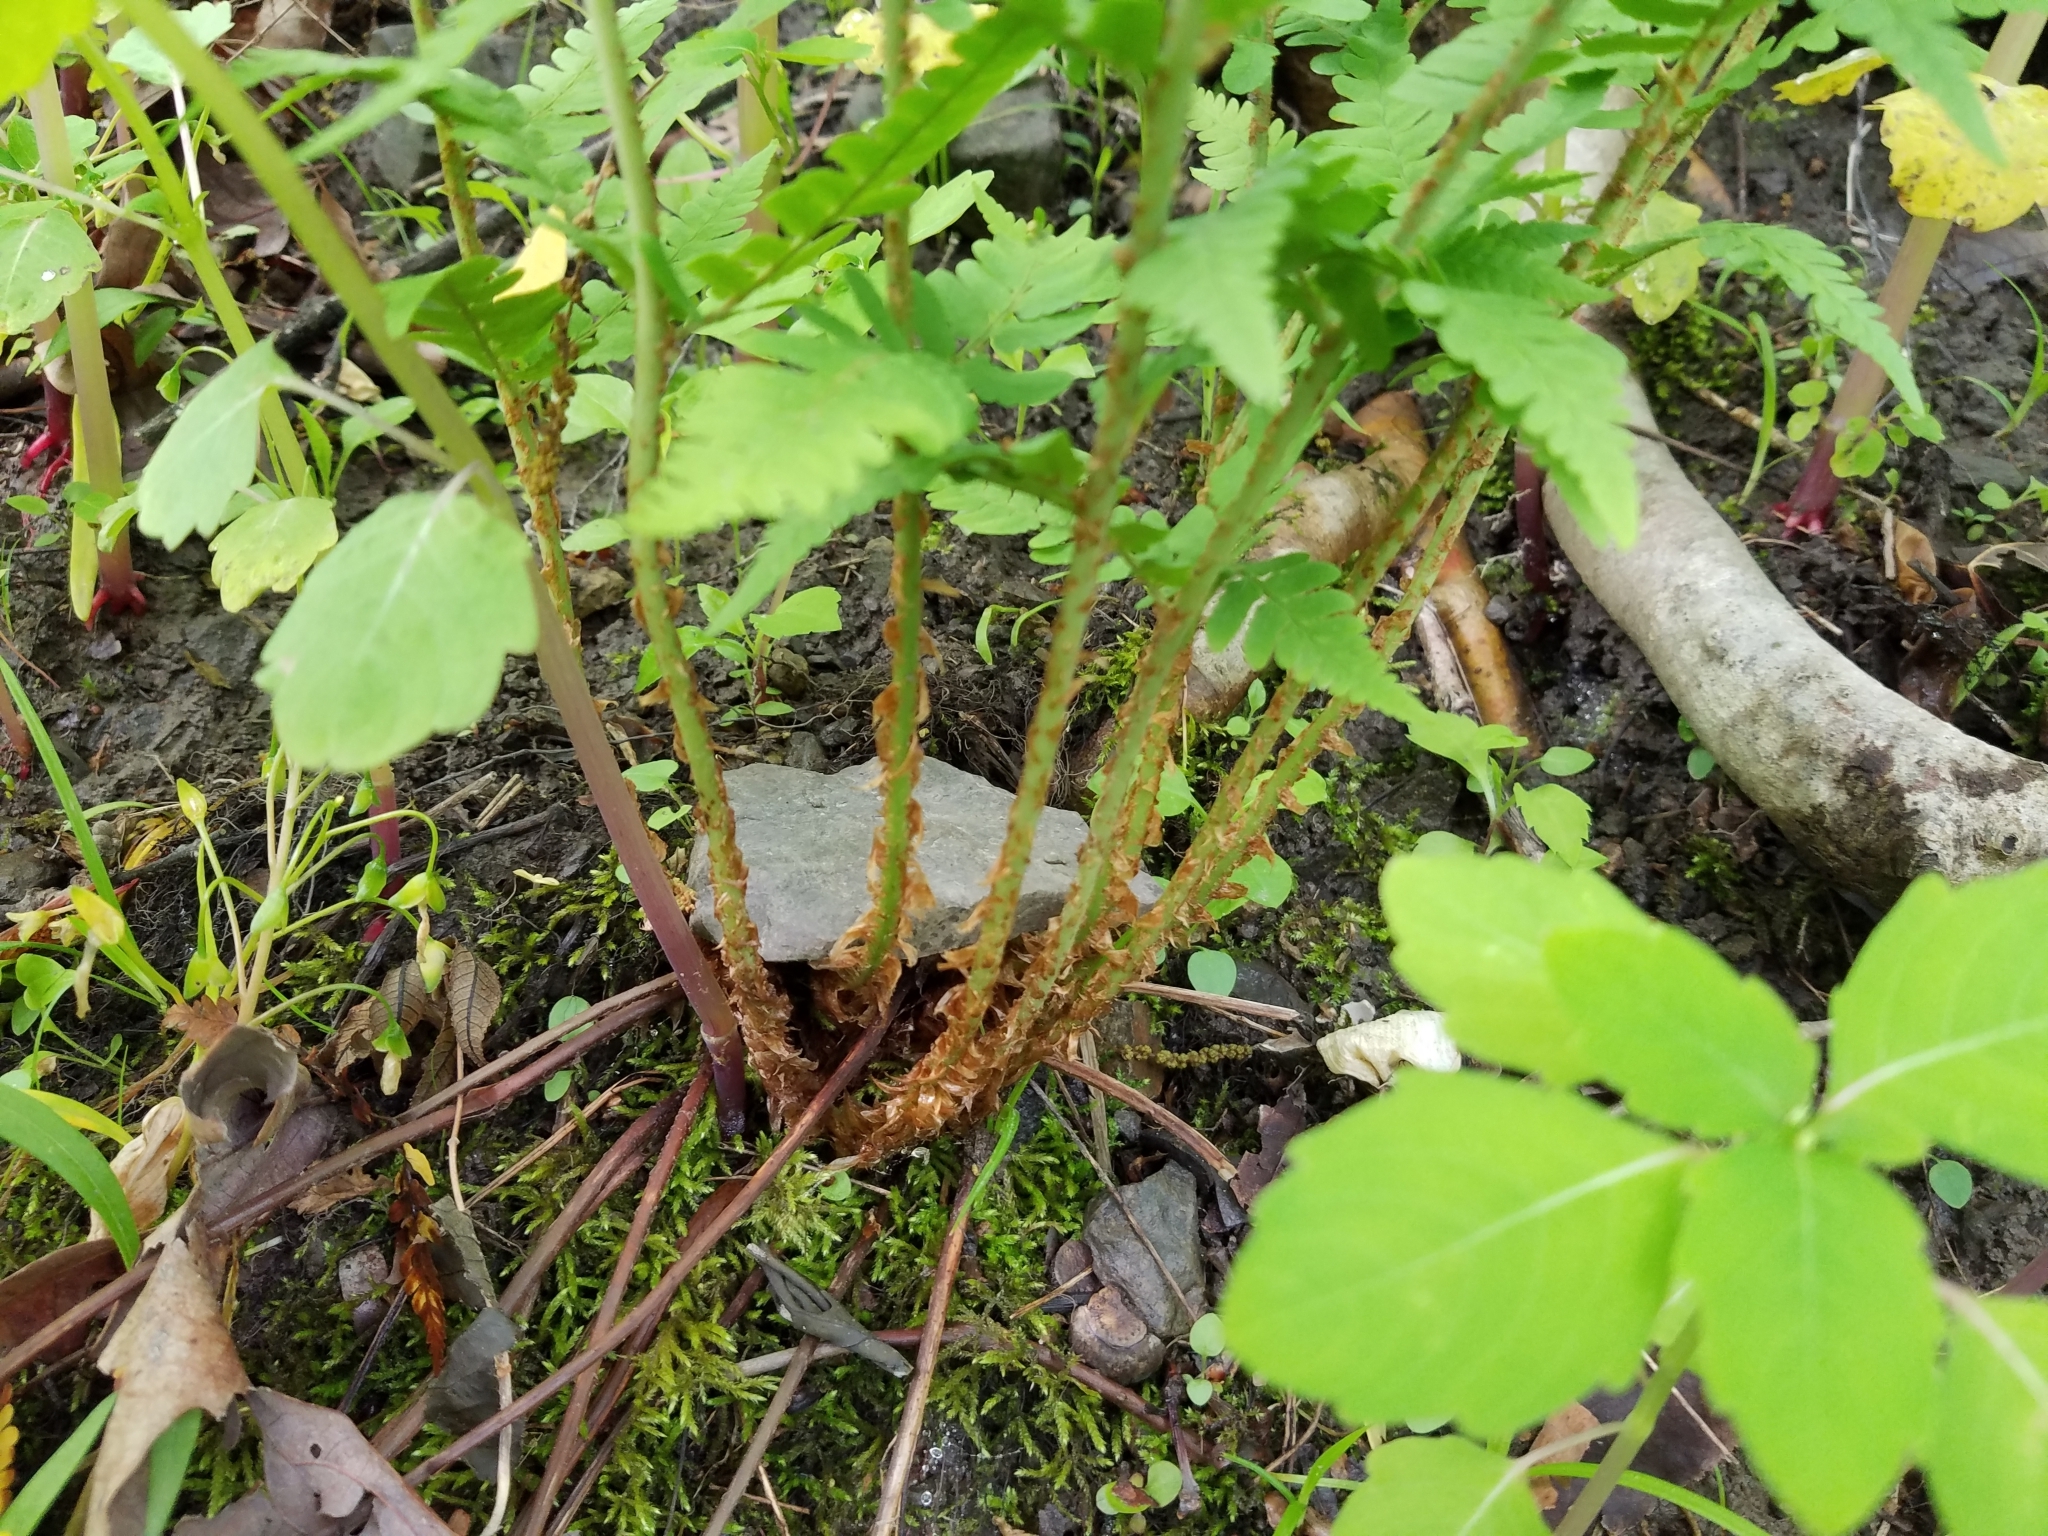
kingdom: Plantae
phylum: Tracheophyta
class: Polypodiopsida
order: Polypodiales
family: Dryopteridaceae
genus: Dryopteris
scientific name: Dryopteris marginalis
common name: Marginal wood fern
